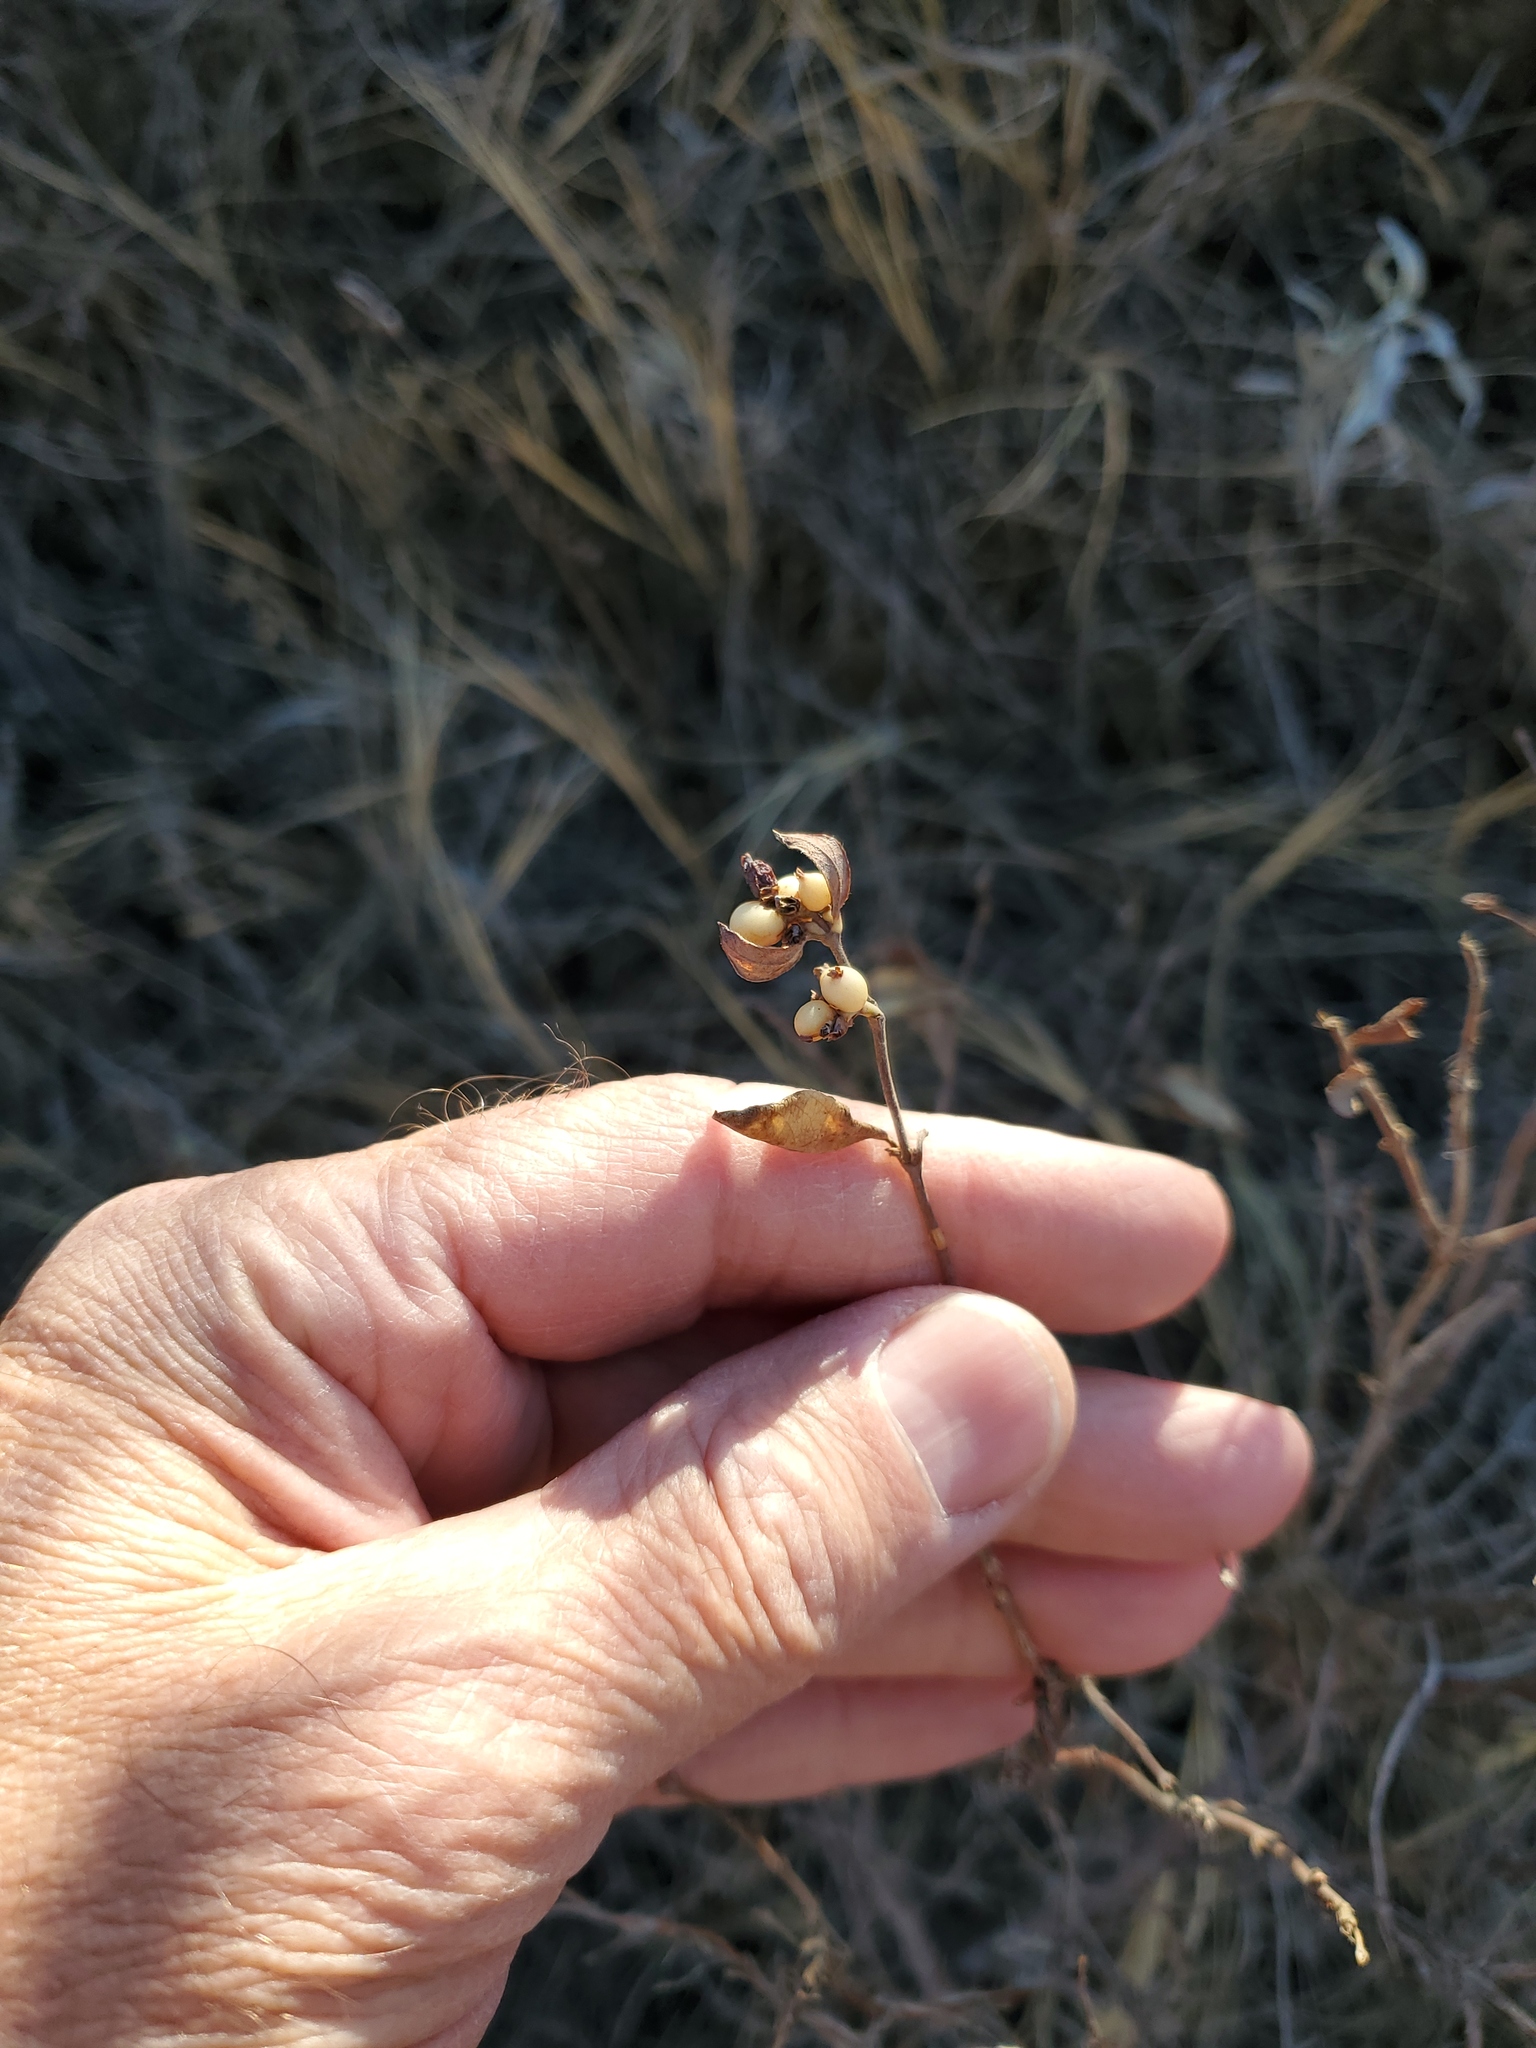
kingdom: Plantae
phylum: Tracheophyta
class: Magnoliopsida
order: Dipsacales
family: Caprifoliaceae
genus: Symphoricarpos
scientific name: Symphoricarpos occidentalis
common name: Wolfberry
